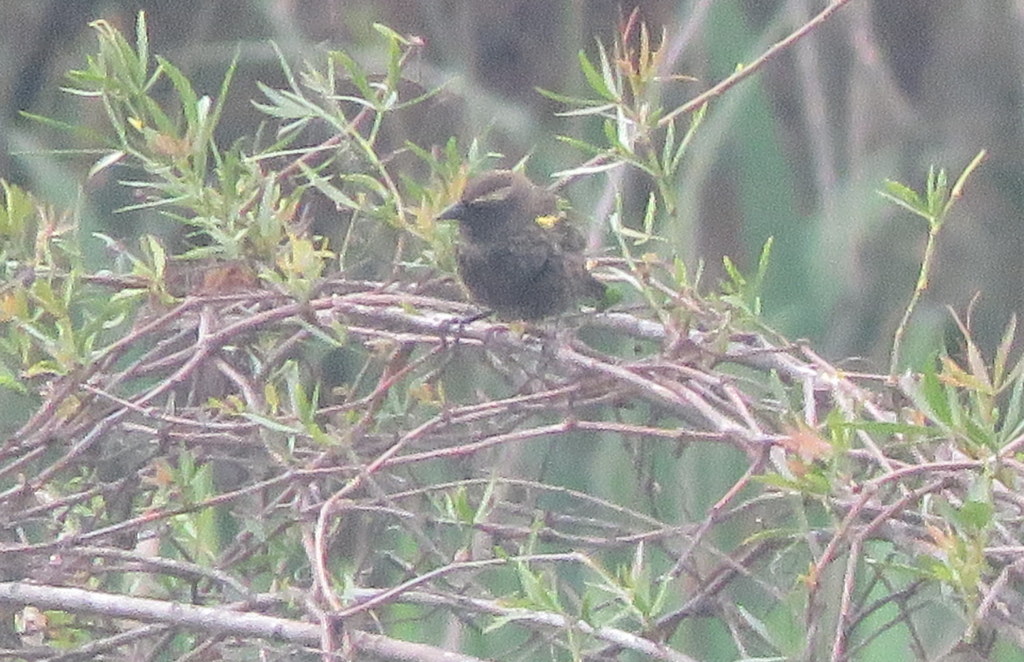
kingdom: Animalia
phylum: Chordata
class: Aves
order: Passeriformes
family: Icteridae
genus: Agelasticus
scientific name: Agelasticus thilius
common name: Yellow-winged blackbird
